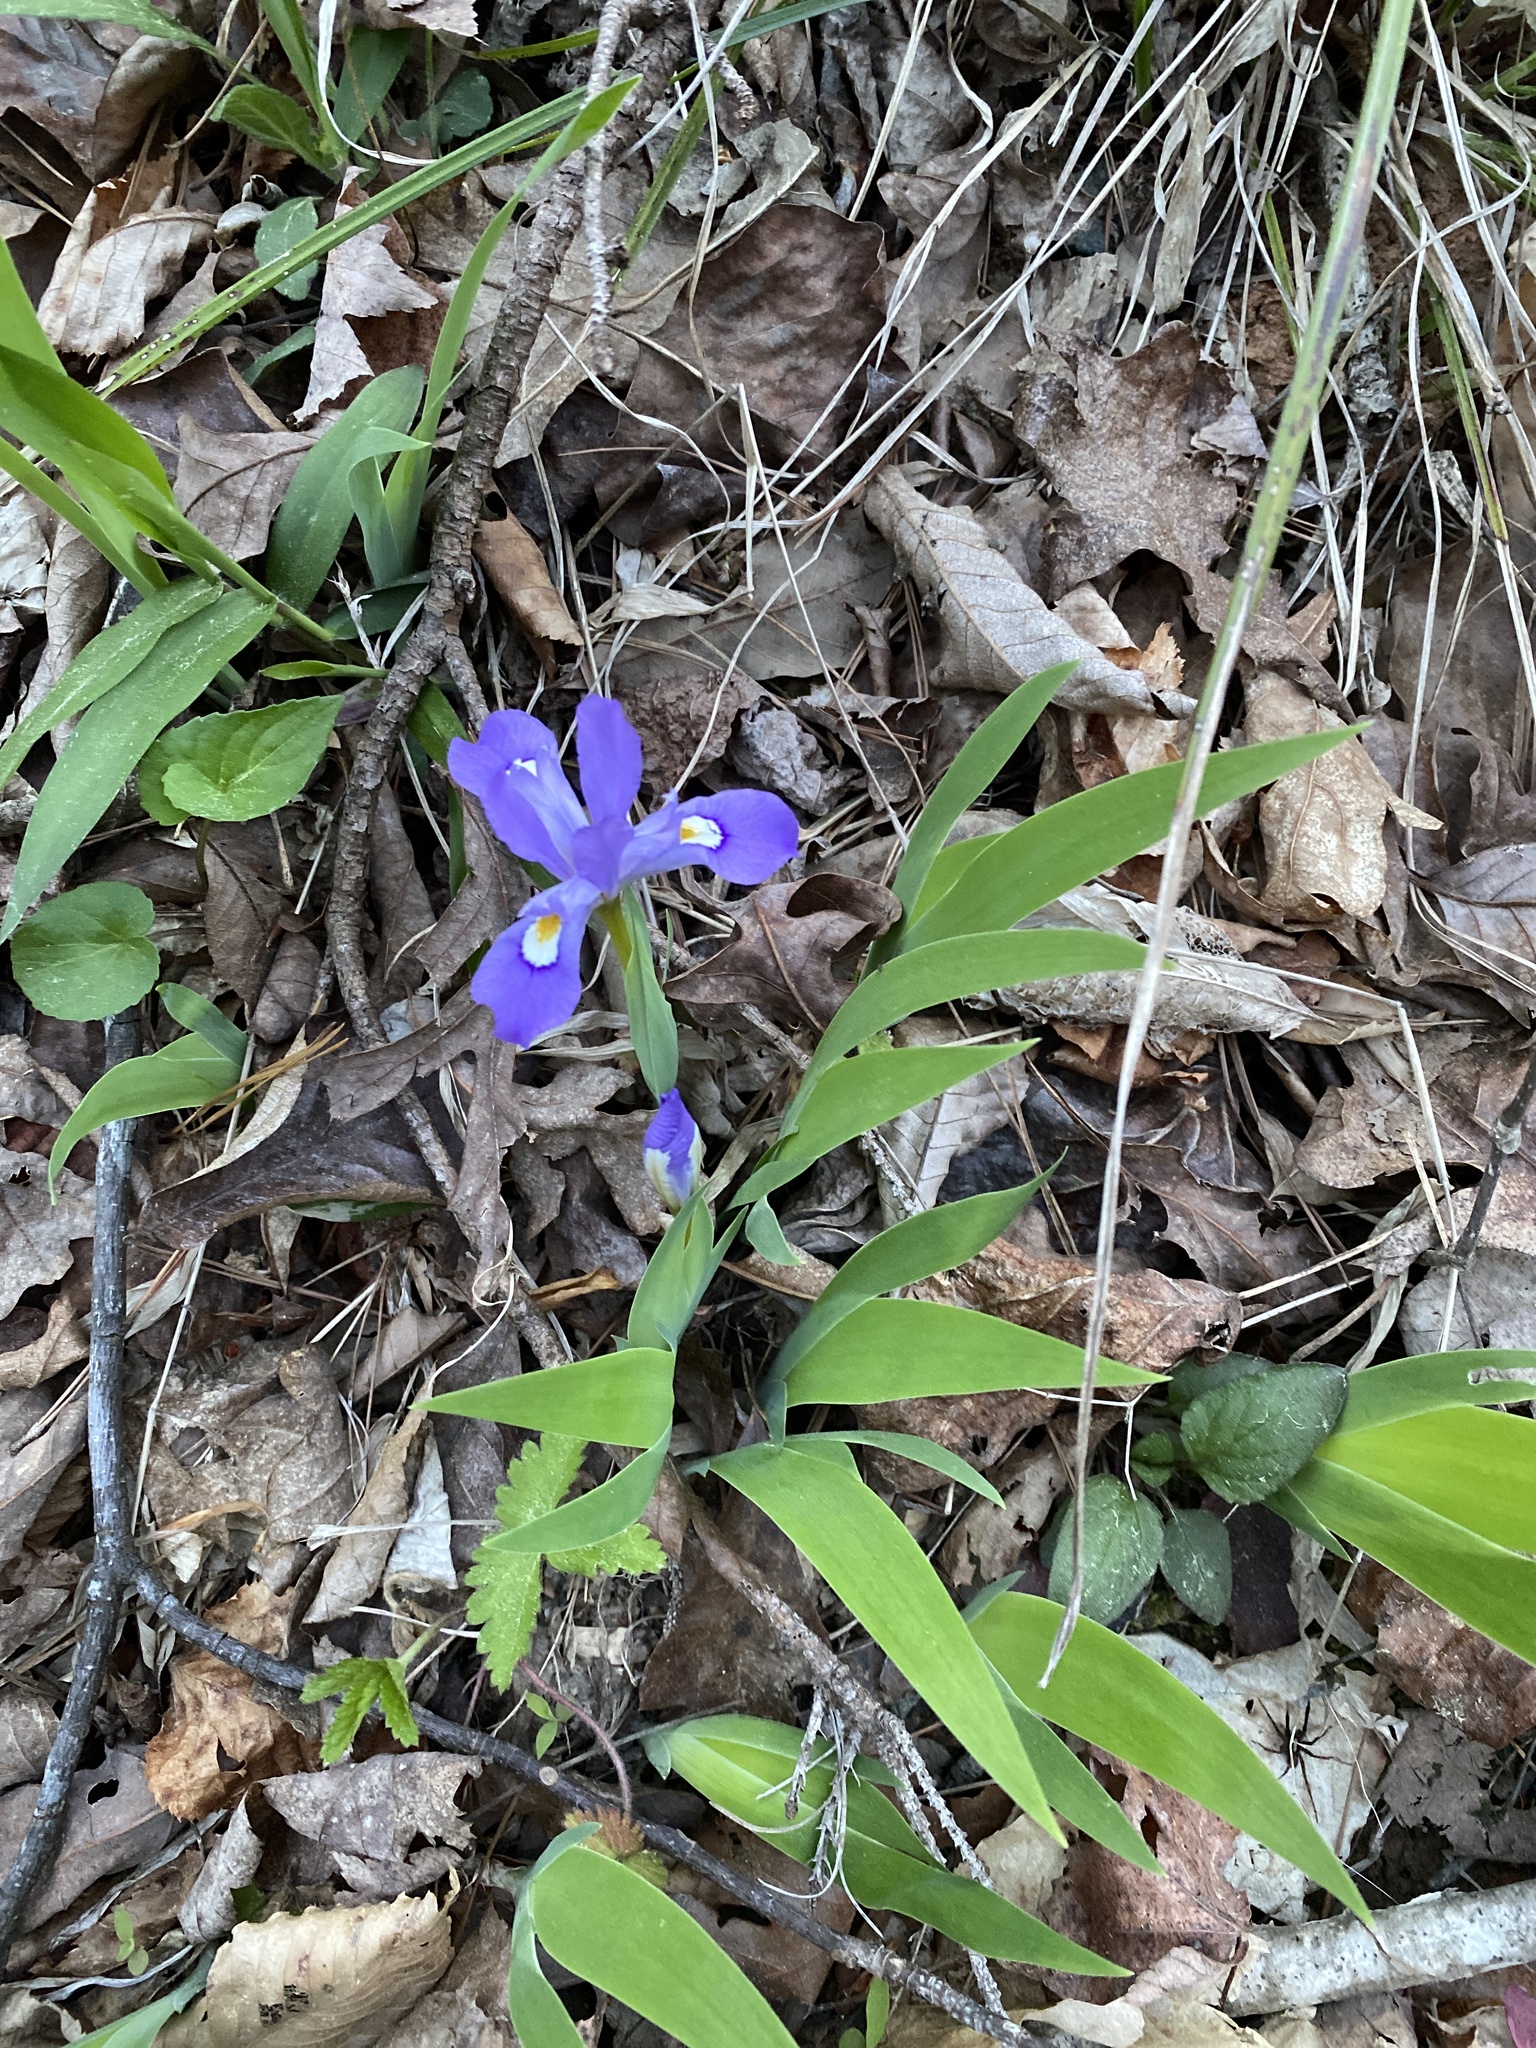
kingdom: Plantae
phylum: Tracheophyta
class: Liliopsida
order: Asparagales
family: Iridaceae
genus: Iris
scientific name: Iris cristata
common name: Crested iris
